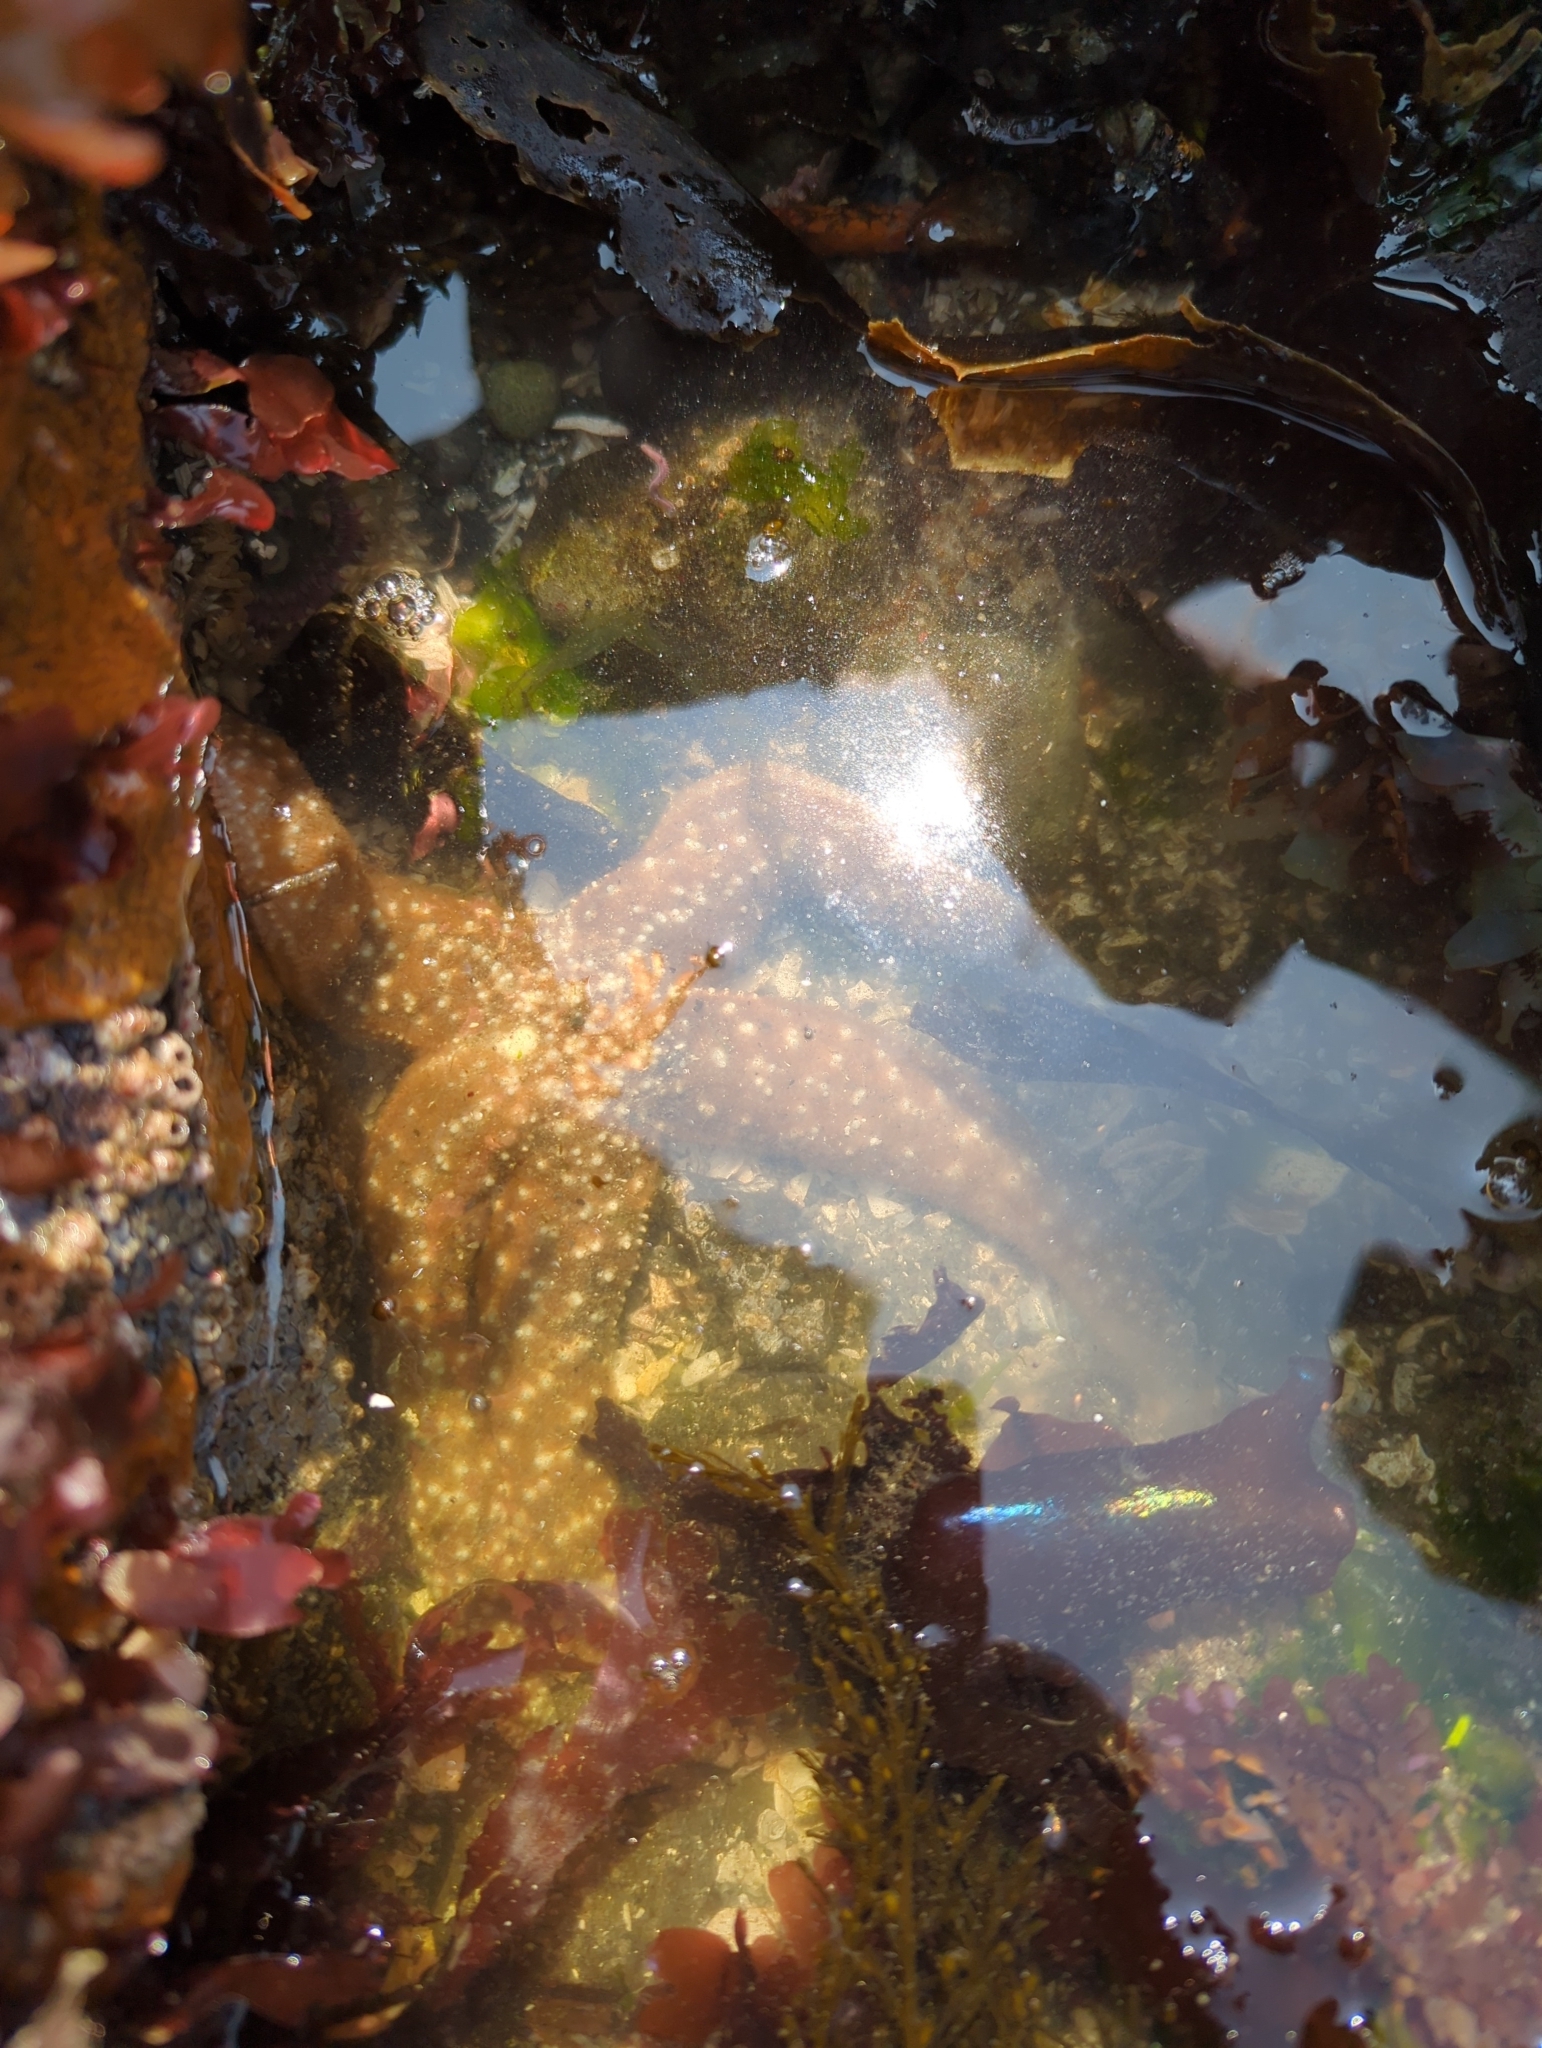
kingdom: Animalia
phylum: Echinodermata
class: Asteroidea
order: Forcipulatida
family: Asteriidae
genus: Evasterias
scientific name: Evasterias troschelii
